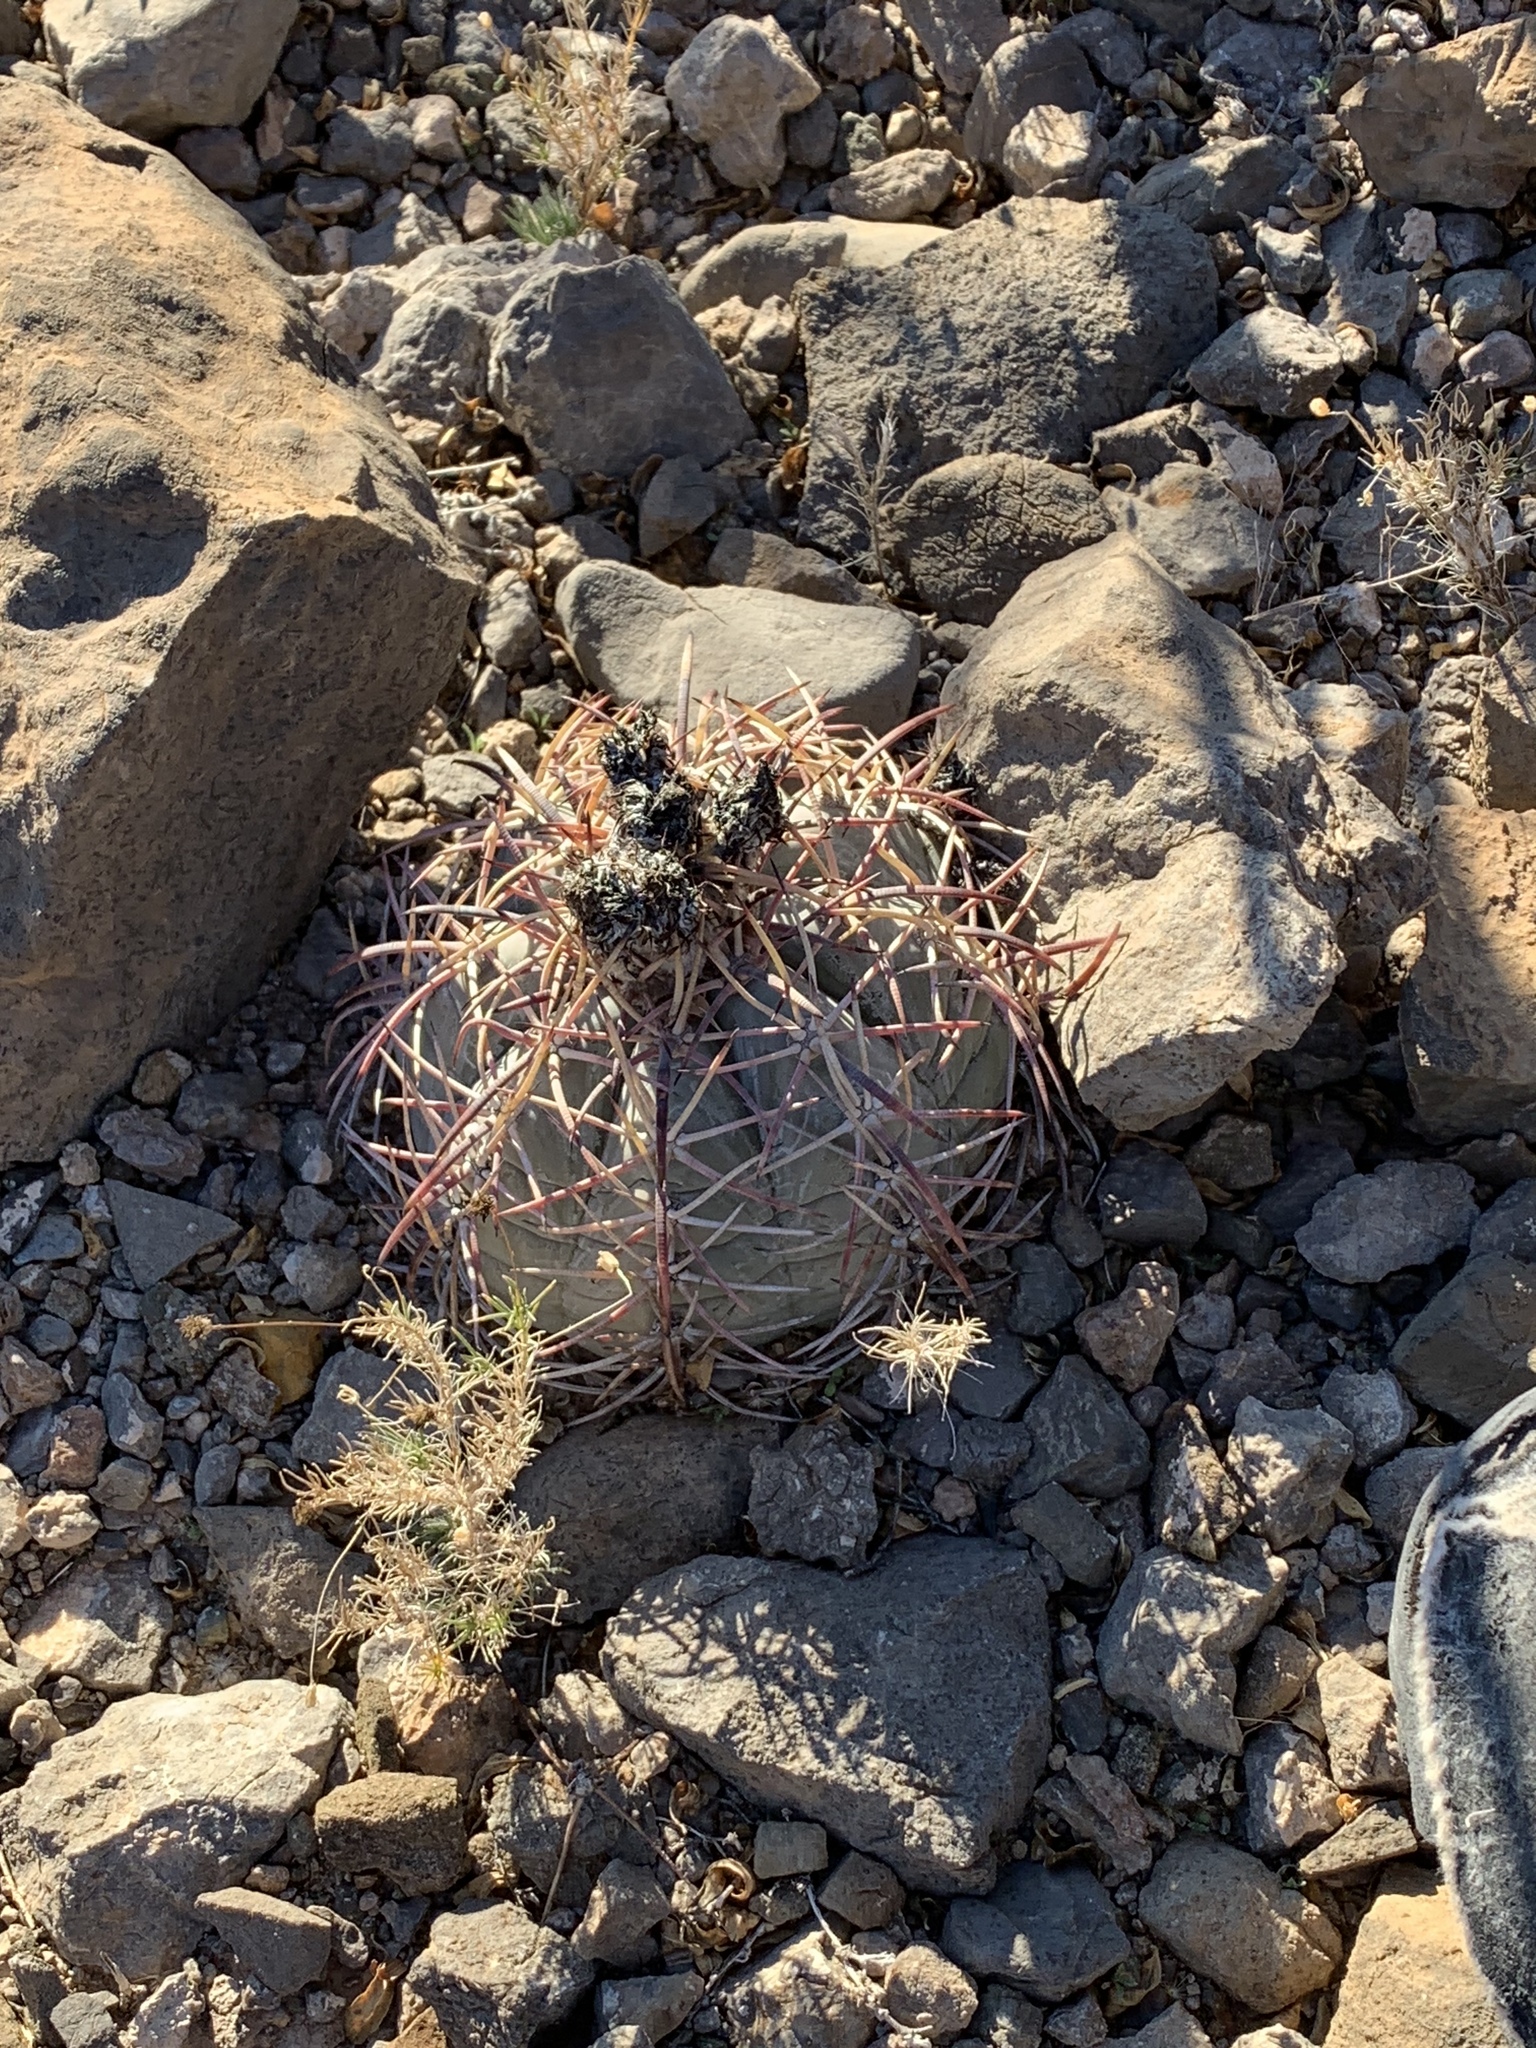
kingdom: Plantae
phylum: Tracheophyta
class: Magnoliopsida
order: Caryophyllales
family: Cactaceae
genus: Echinocactus
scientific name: Echinocactus horizonthalonius
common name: Devilshead
